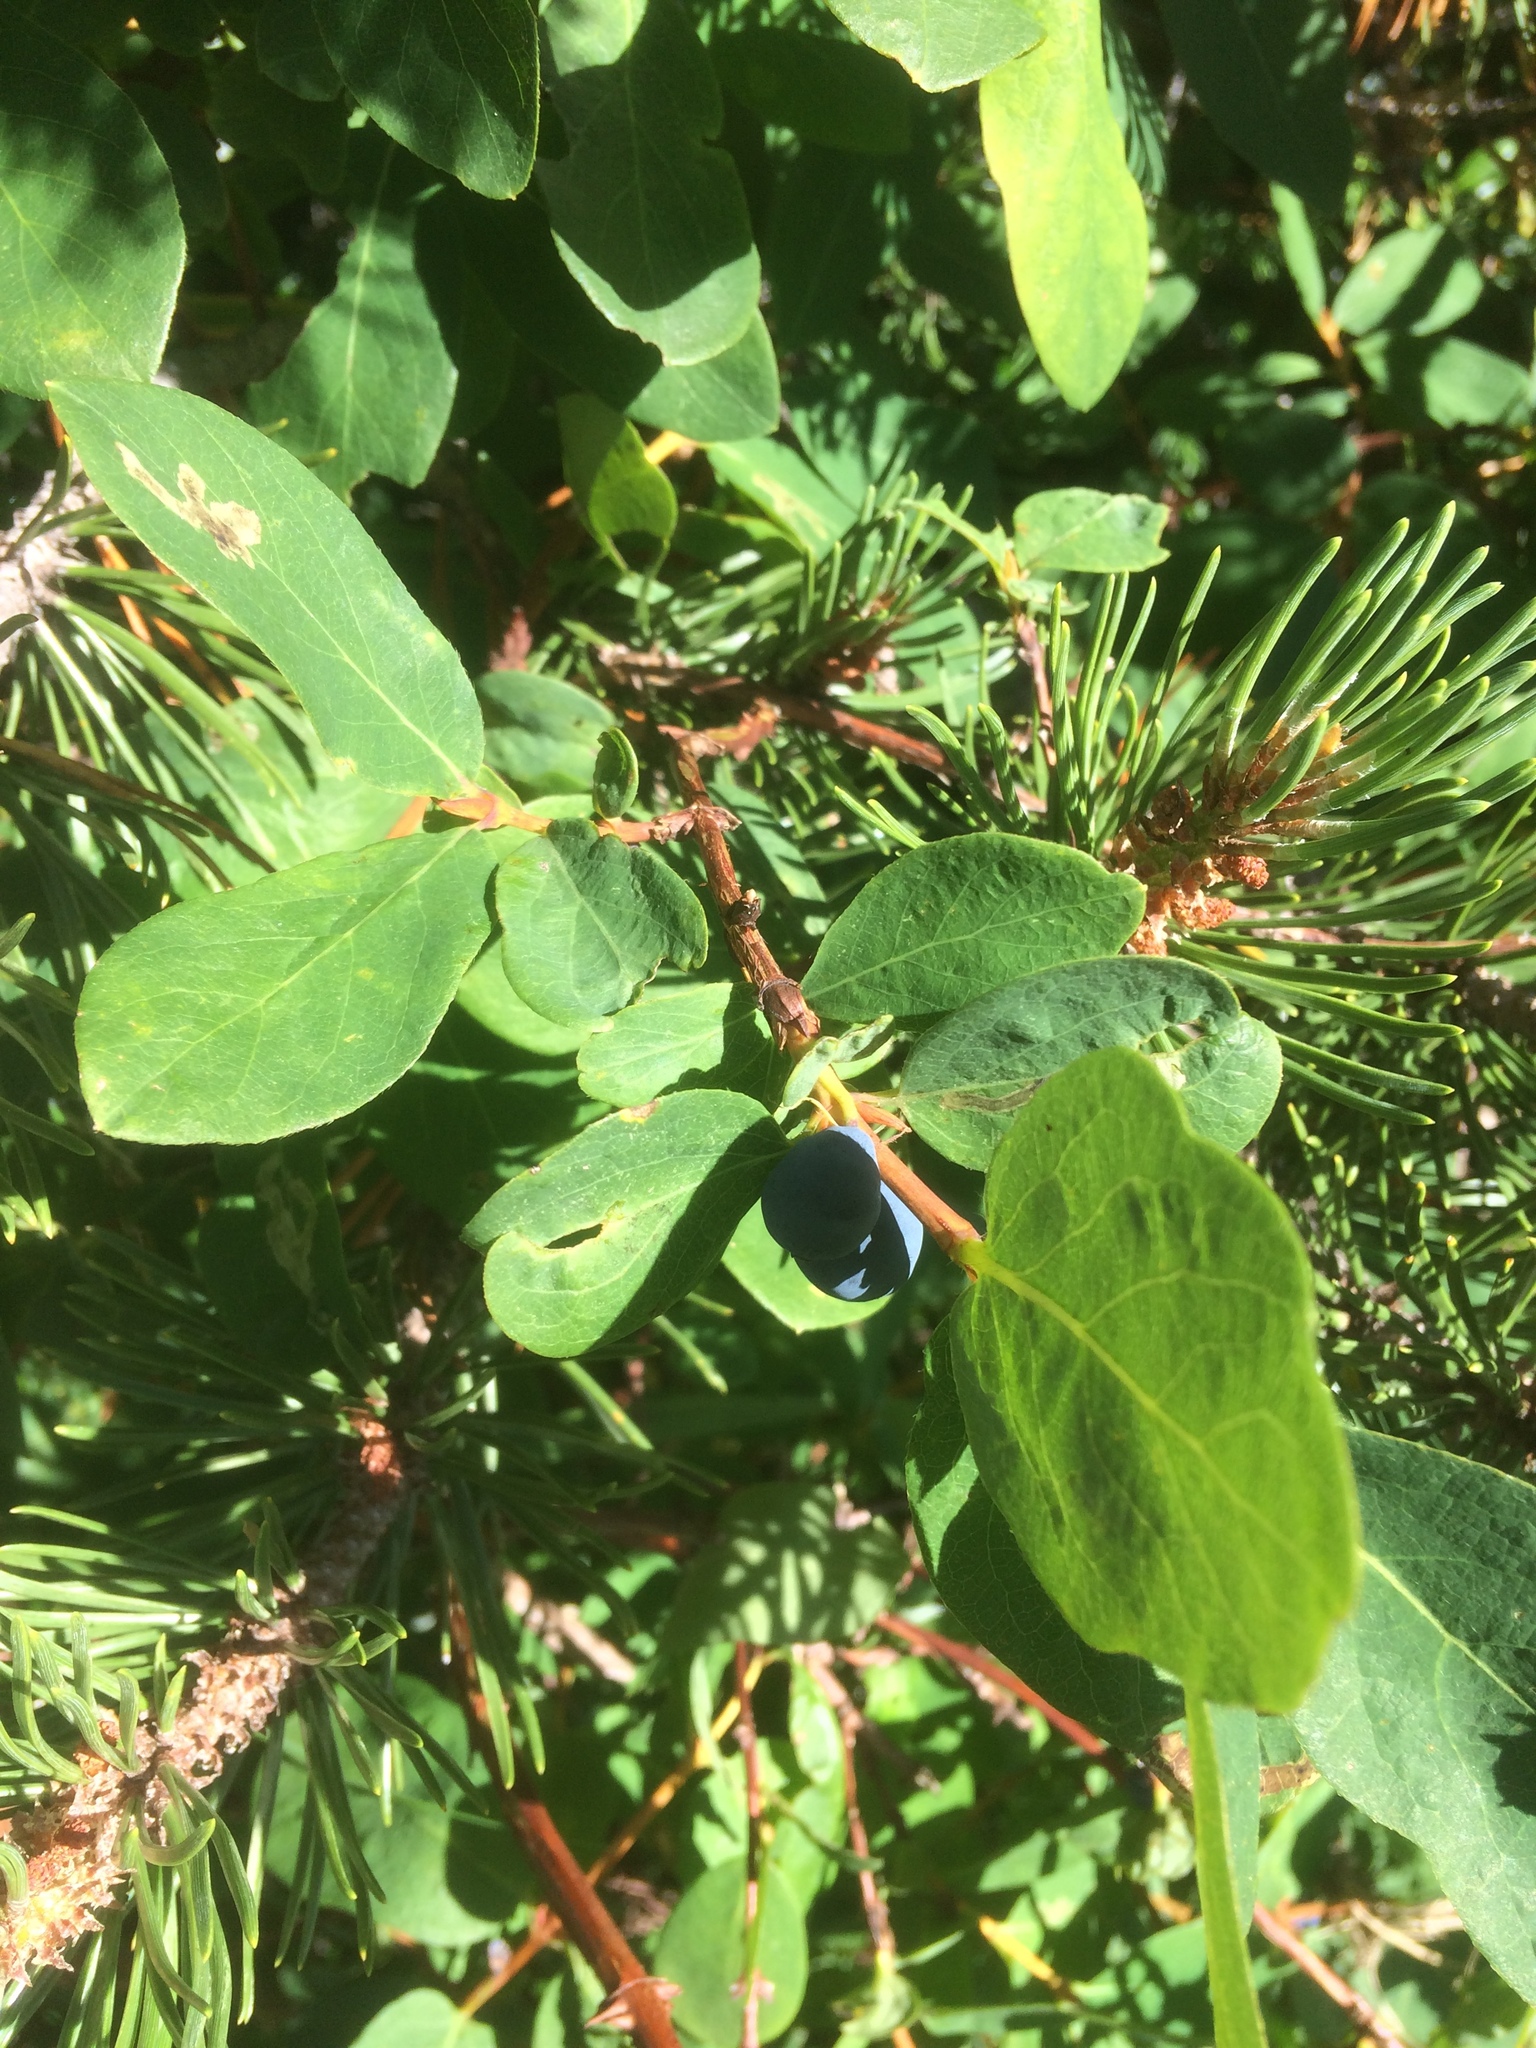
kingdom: Plantae
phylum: Tracheophyta
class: Magnoliopsida
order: Dipsacales
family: Caprifoliaceae
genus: Lonicera
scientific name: Lonicera caerulea
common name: Blue honeysuckle
